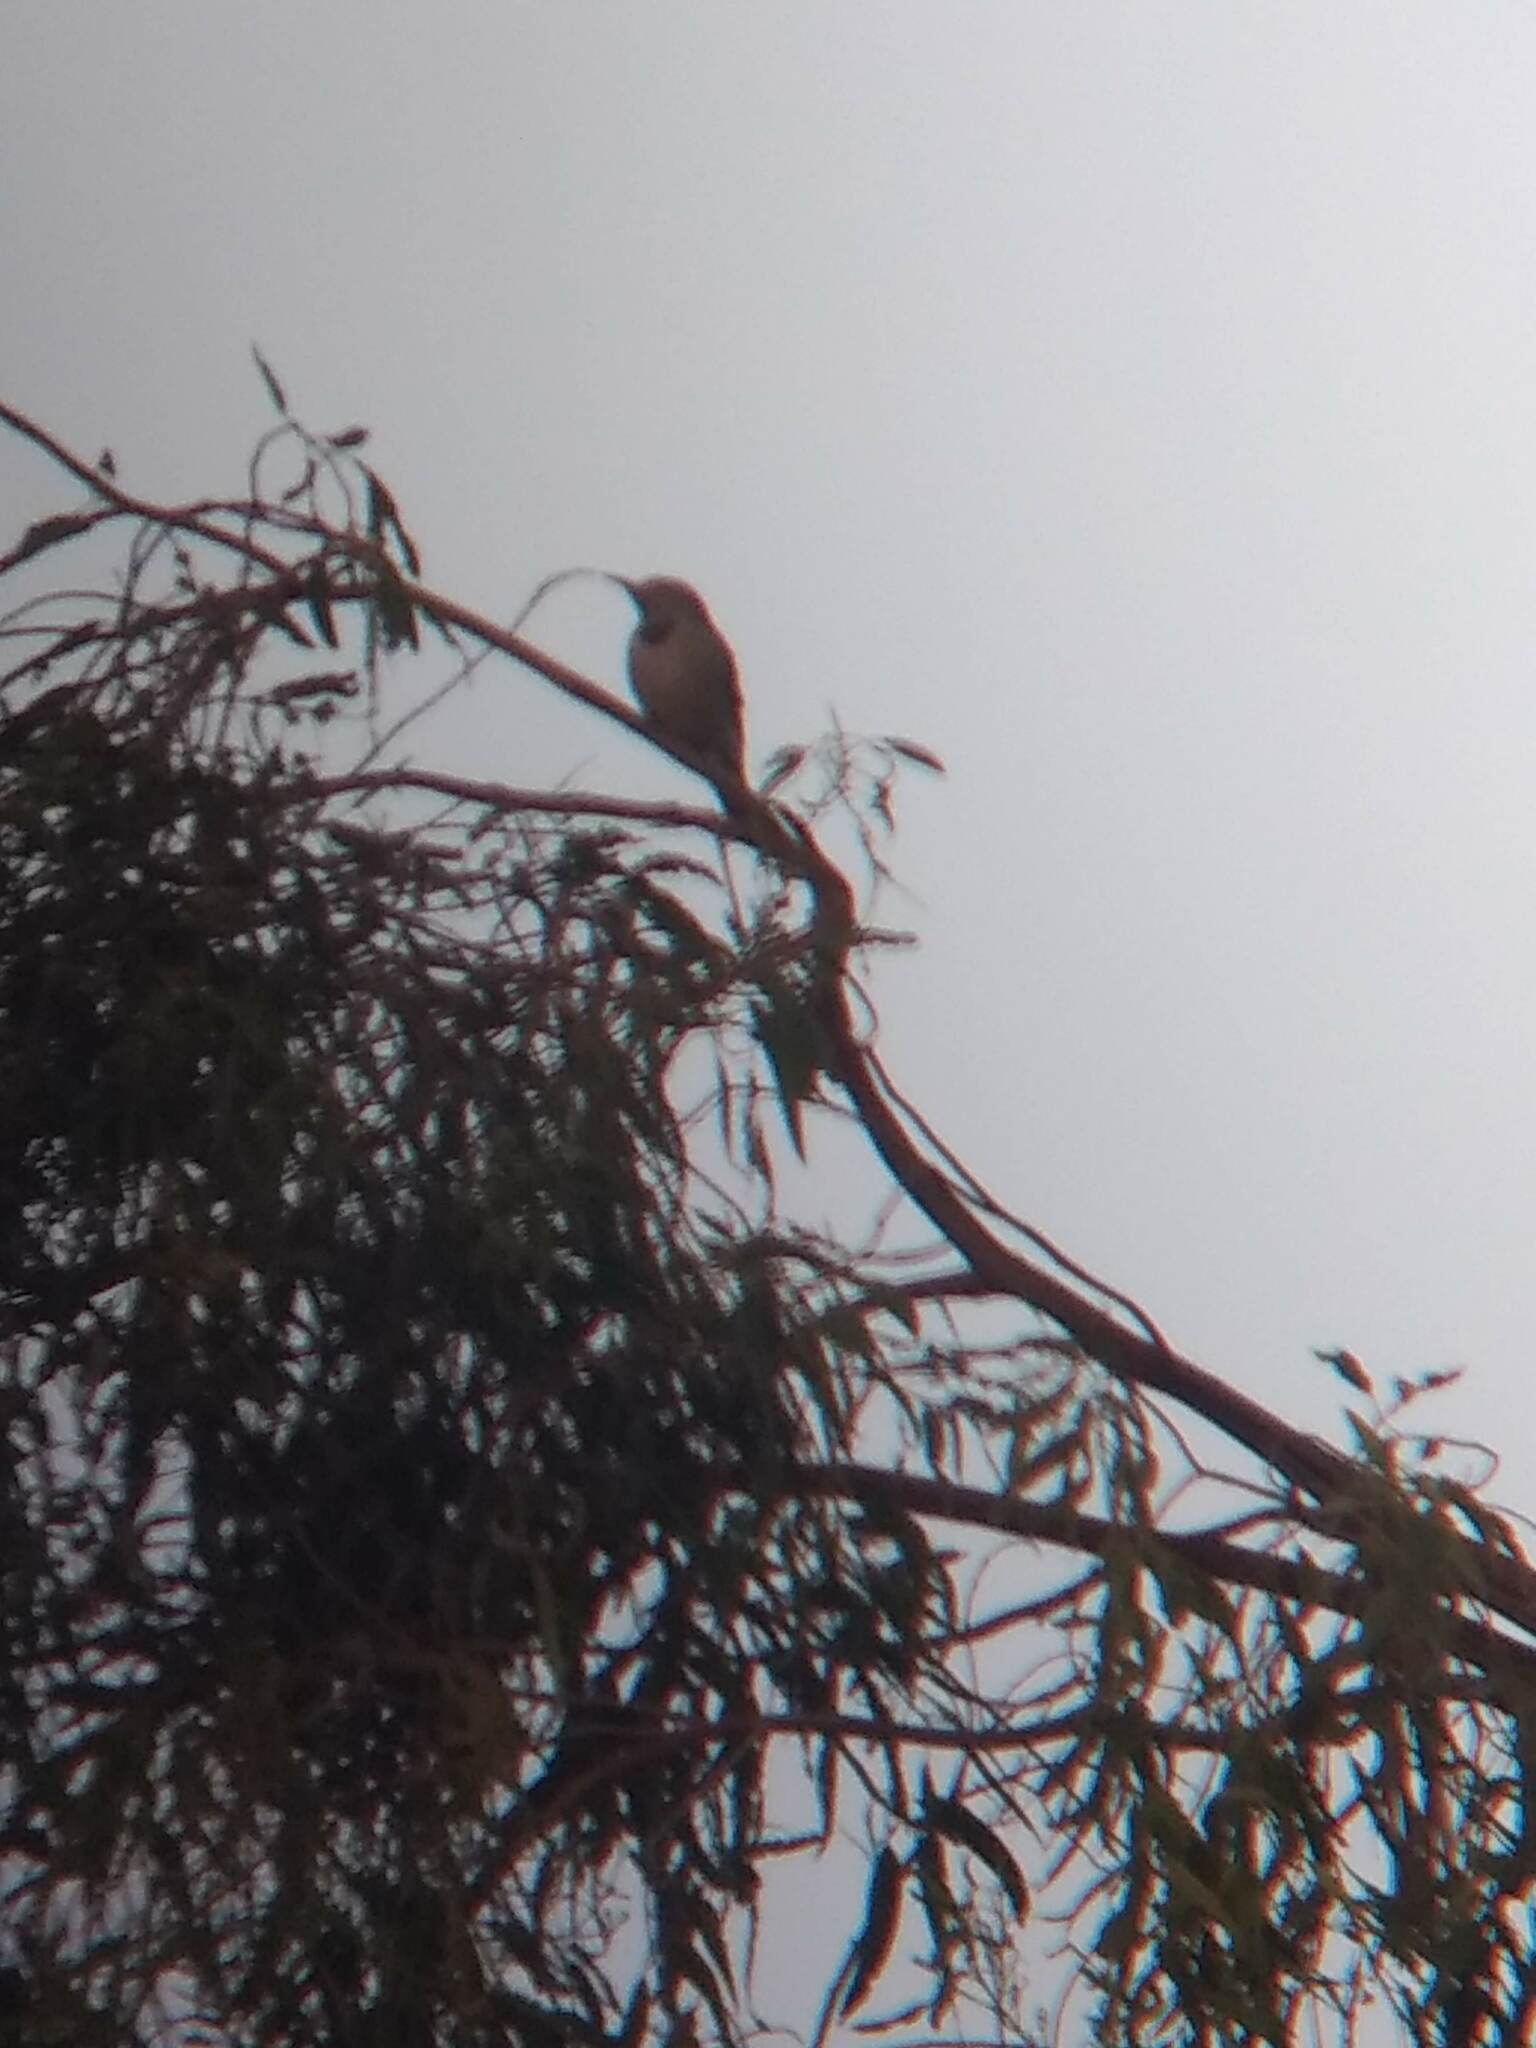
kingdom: Animalia
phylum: Chordata
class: Aves
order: Piciformes
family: Picidae
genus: Colaptes
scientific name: Colaptes auratus
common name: Northern flicker
